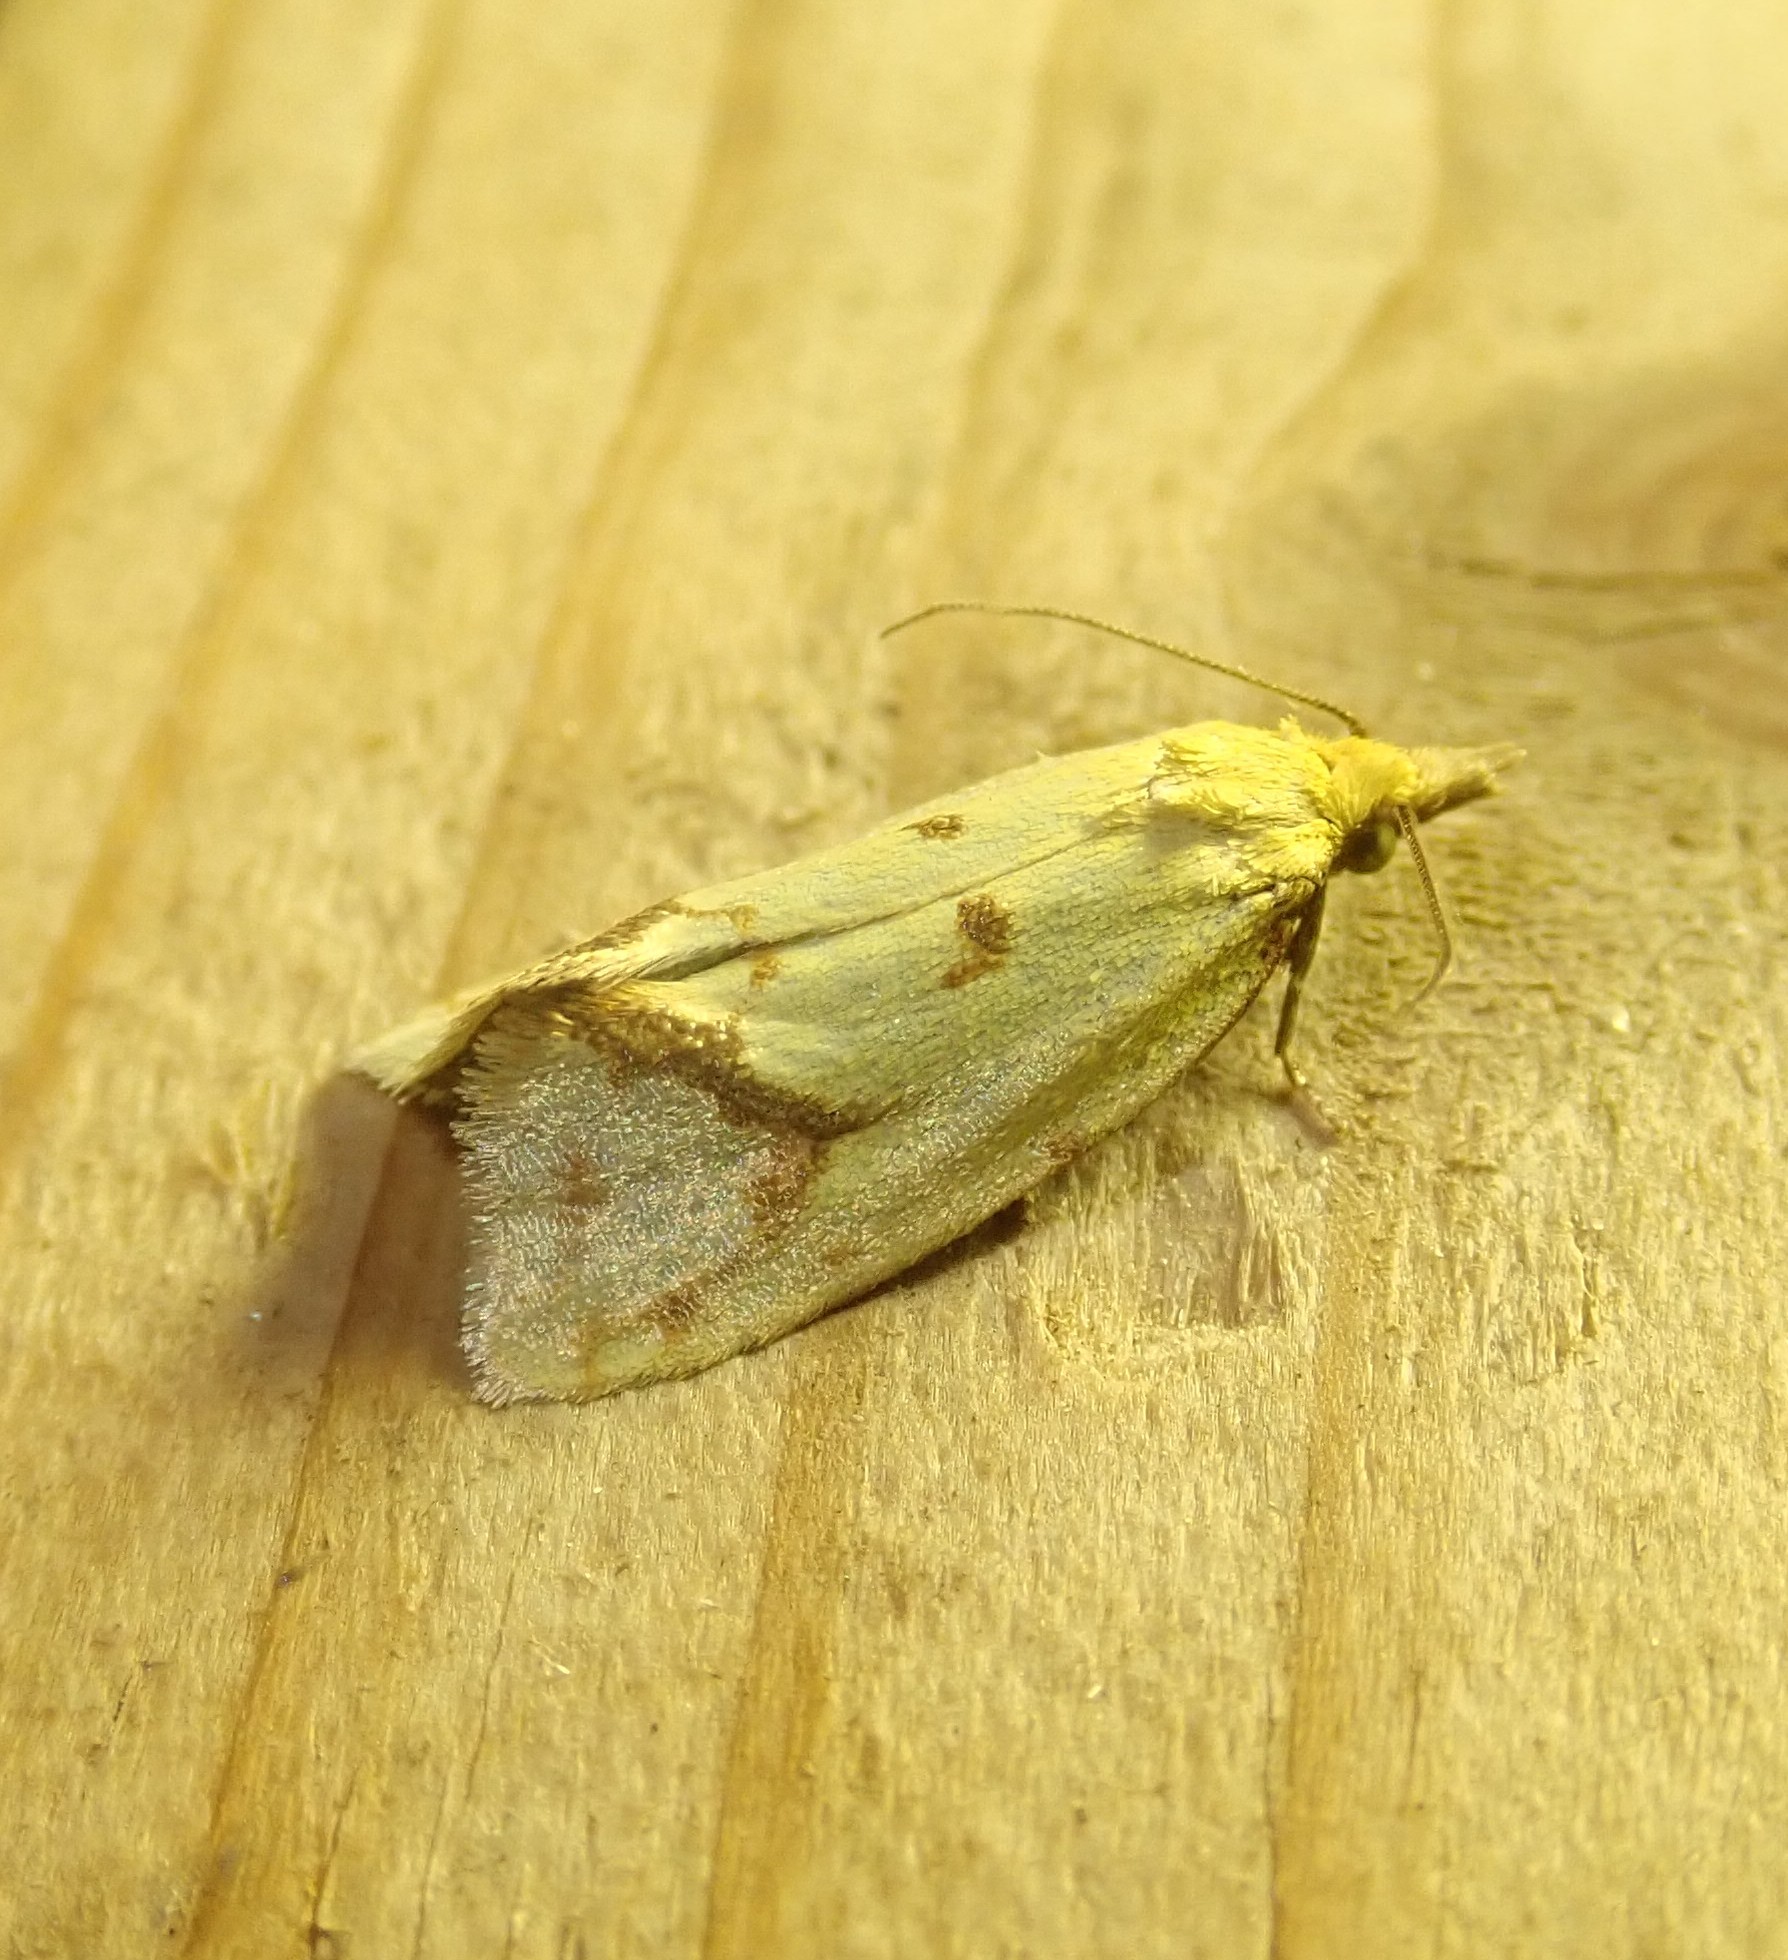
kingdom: Animalia
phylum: Arthropoda
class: Insecta
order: Lepidoptera
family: Tortricidae
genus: Agapeta
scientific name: Agapeta hamana
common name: Common yellow conch
